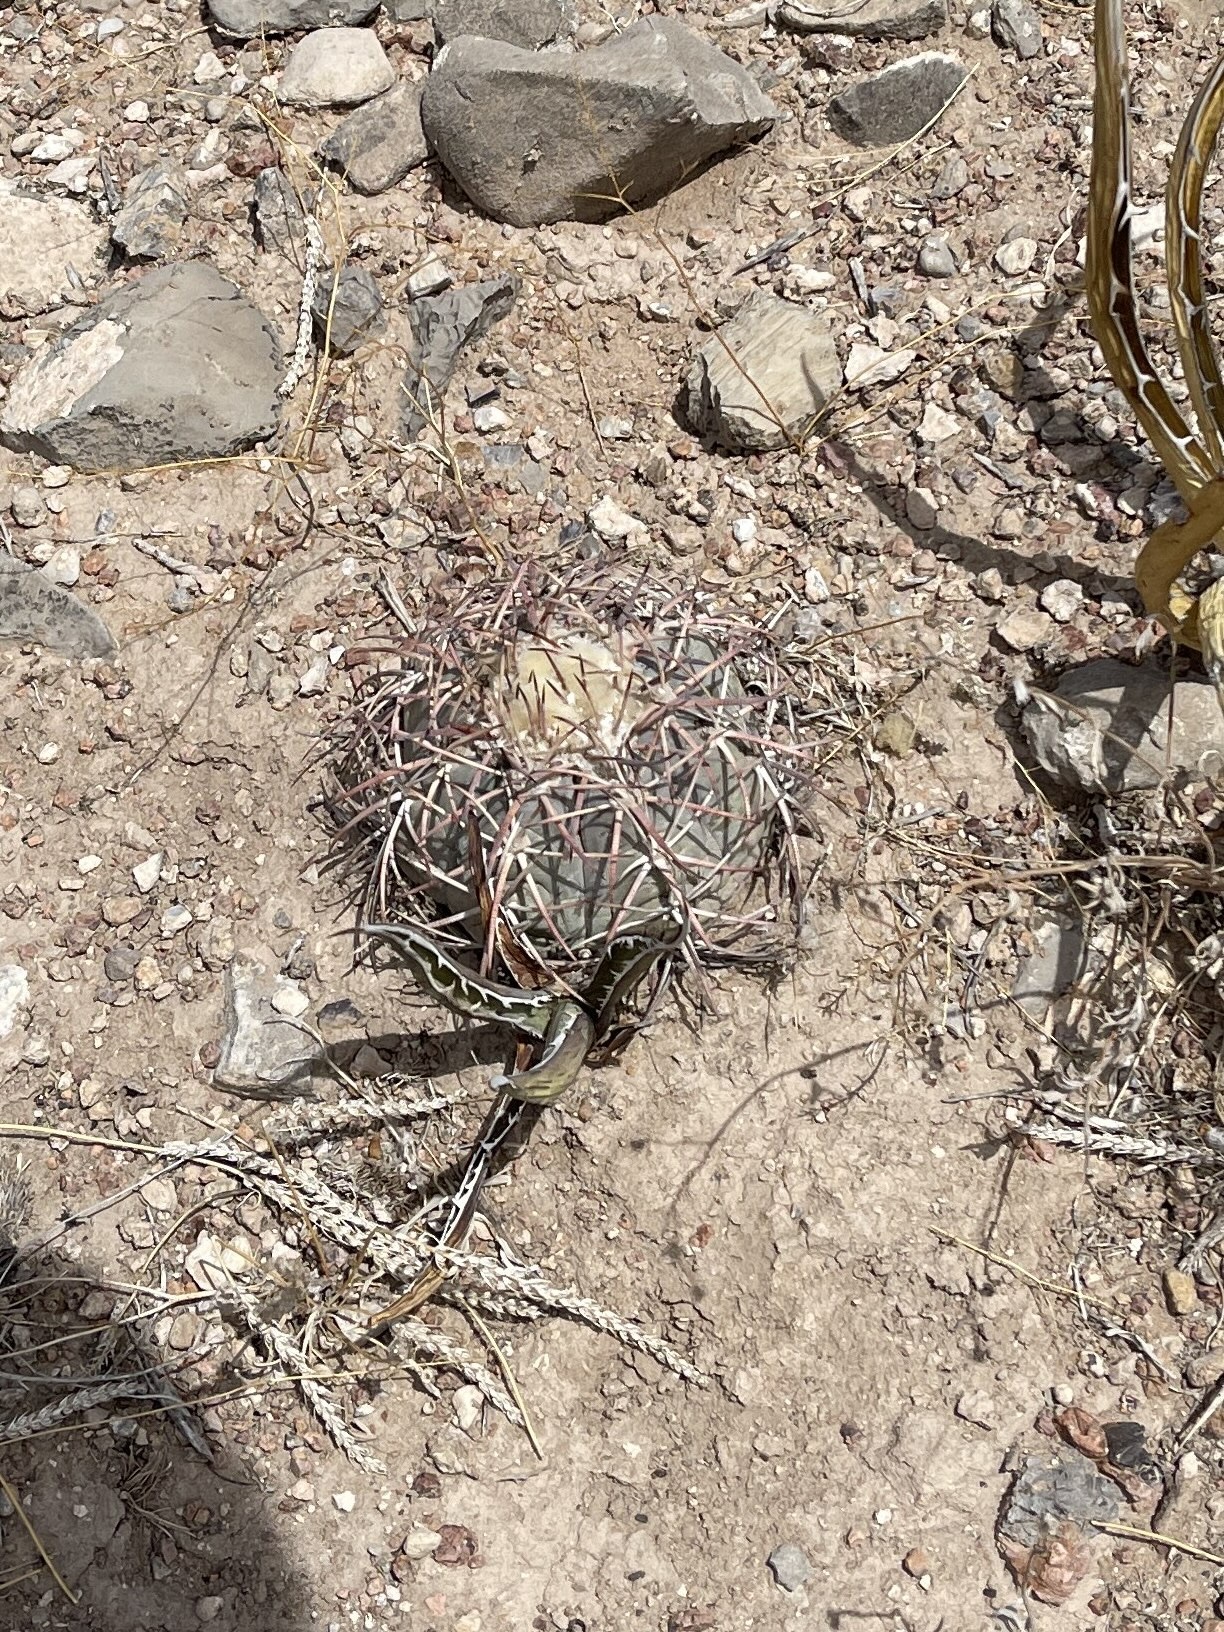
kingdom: Plantae
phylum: Tracheophyta
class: Magnoliopsida
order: Caryophyllales
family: Cactaceae
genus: Echinocactus
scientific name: Echinocactus horizonthalonius
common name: Devilshead
